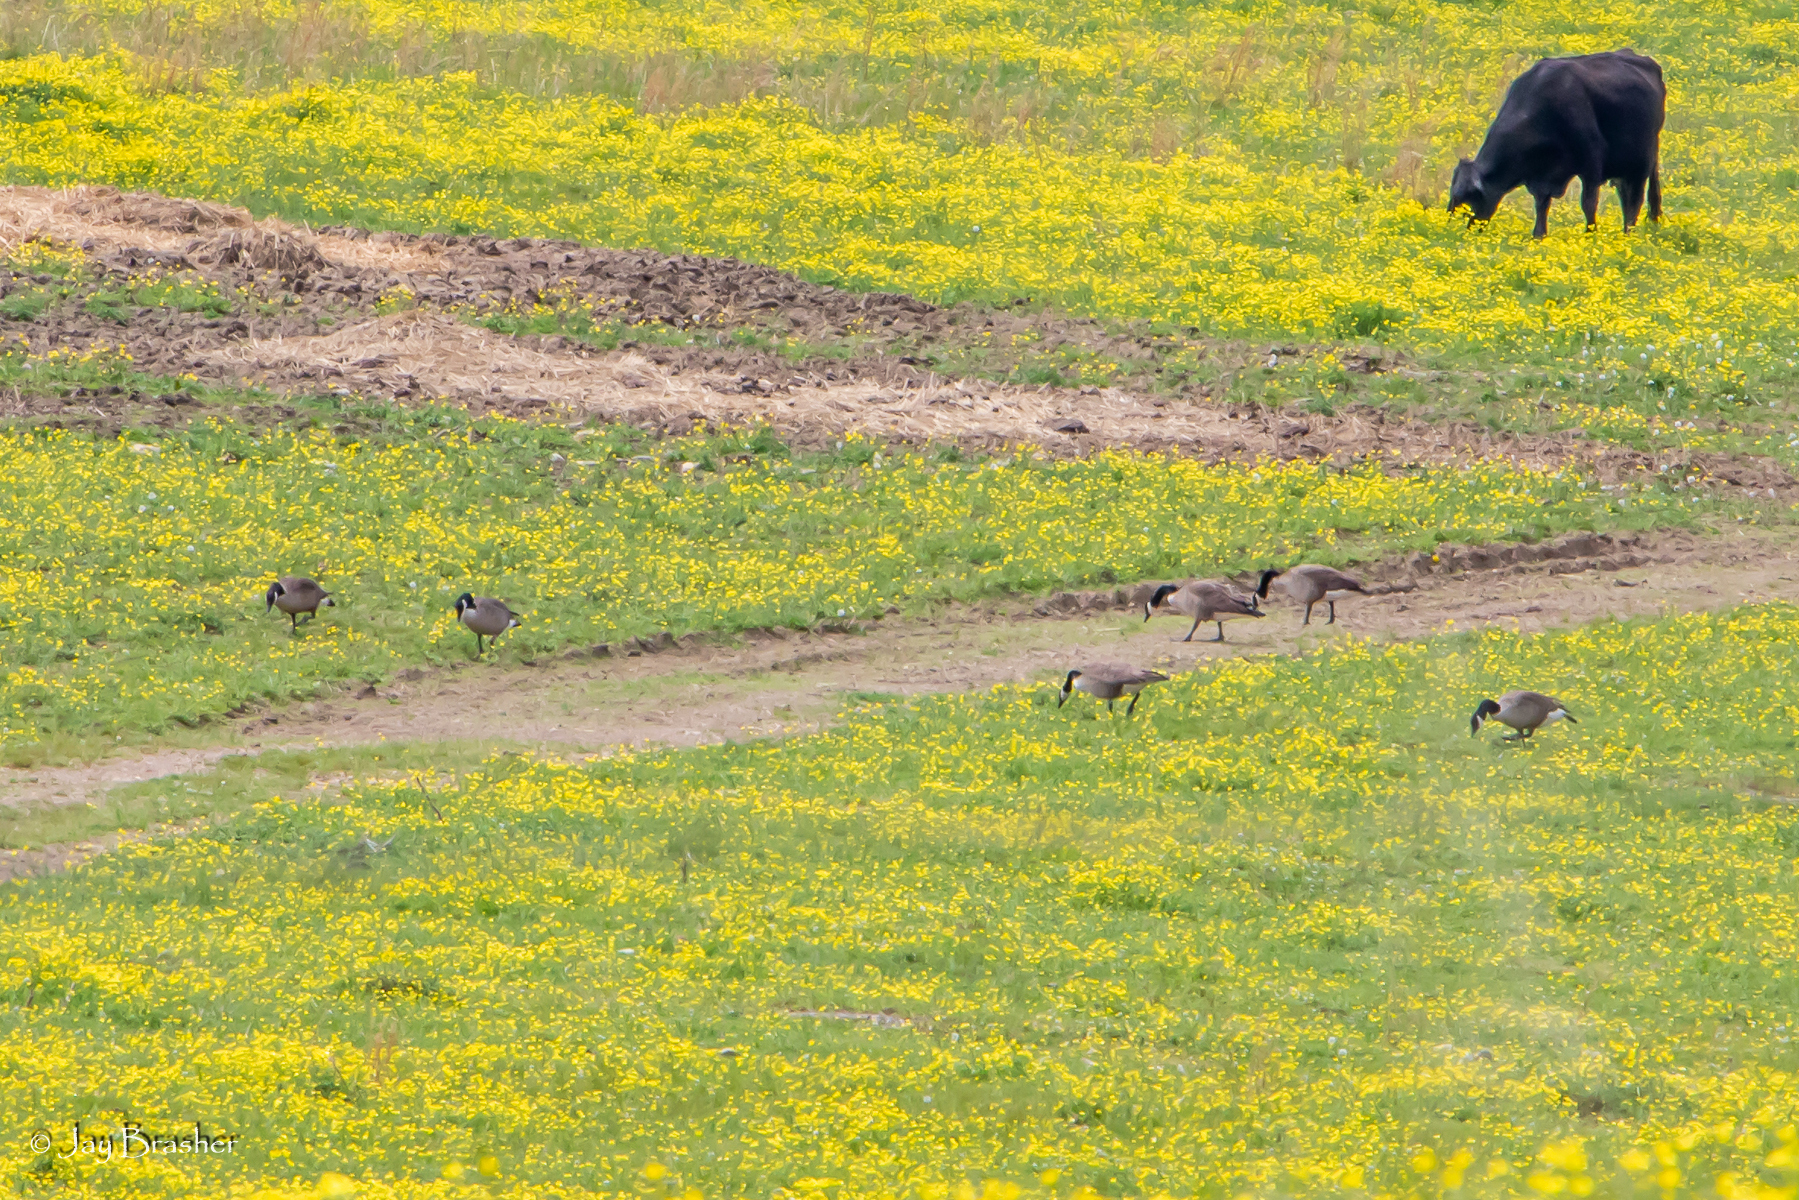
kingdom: Animalia
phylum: Chordata
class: Aves
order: Anseriformes
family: Anatidae
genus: Branta
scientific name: Branta canadensis
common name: Canada goose
